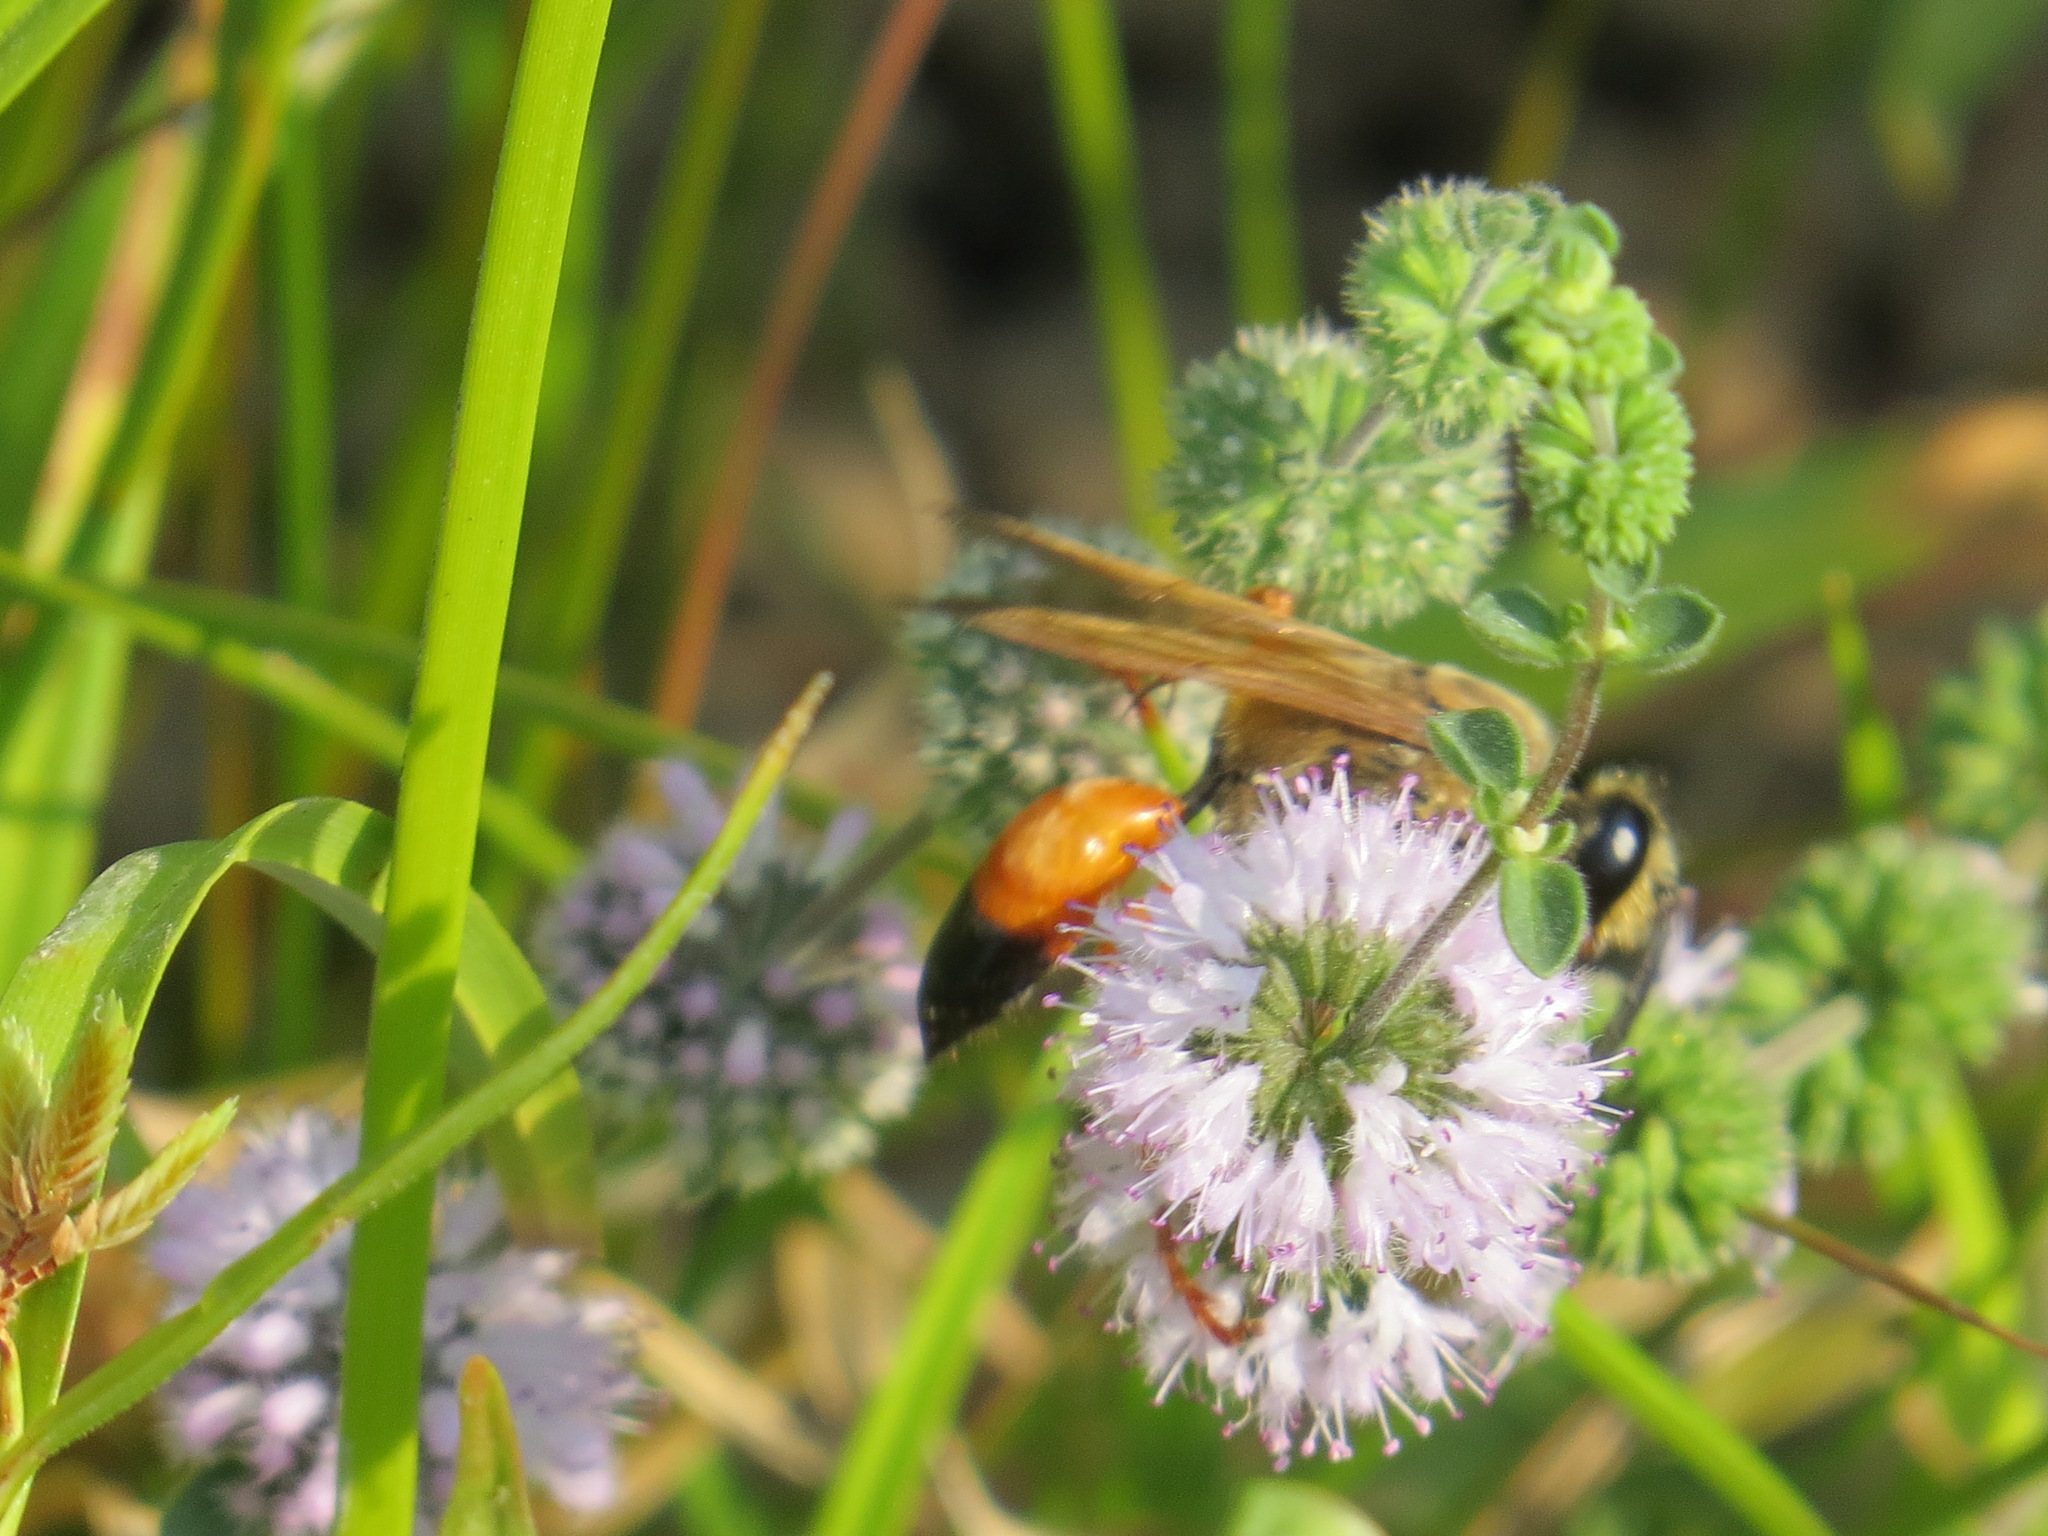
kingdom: Animalia
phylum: Arthropoda
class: Insecta
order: Hymenoptera
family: Sphecidae
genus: Sphex
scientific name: Sphex ichneumoneus
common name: Great golden digger wasp
